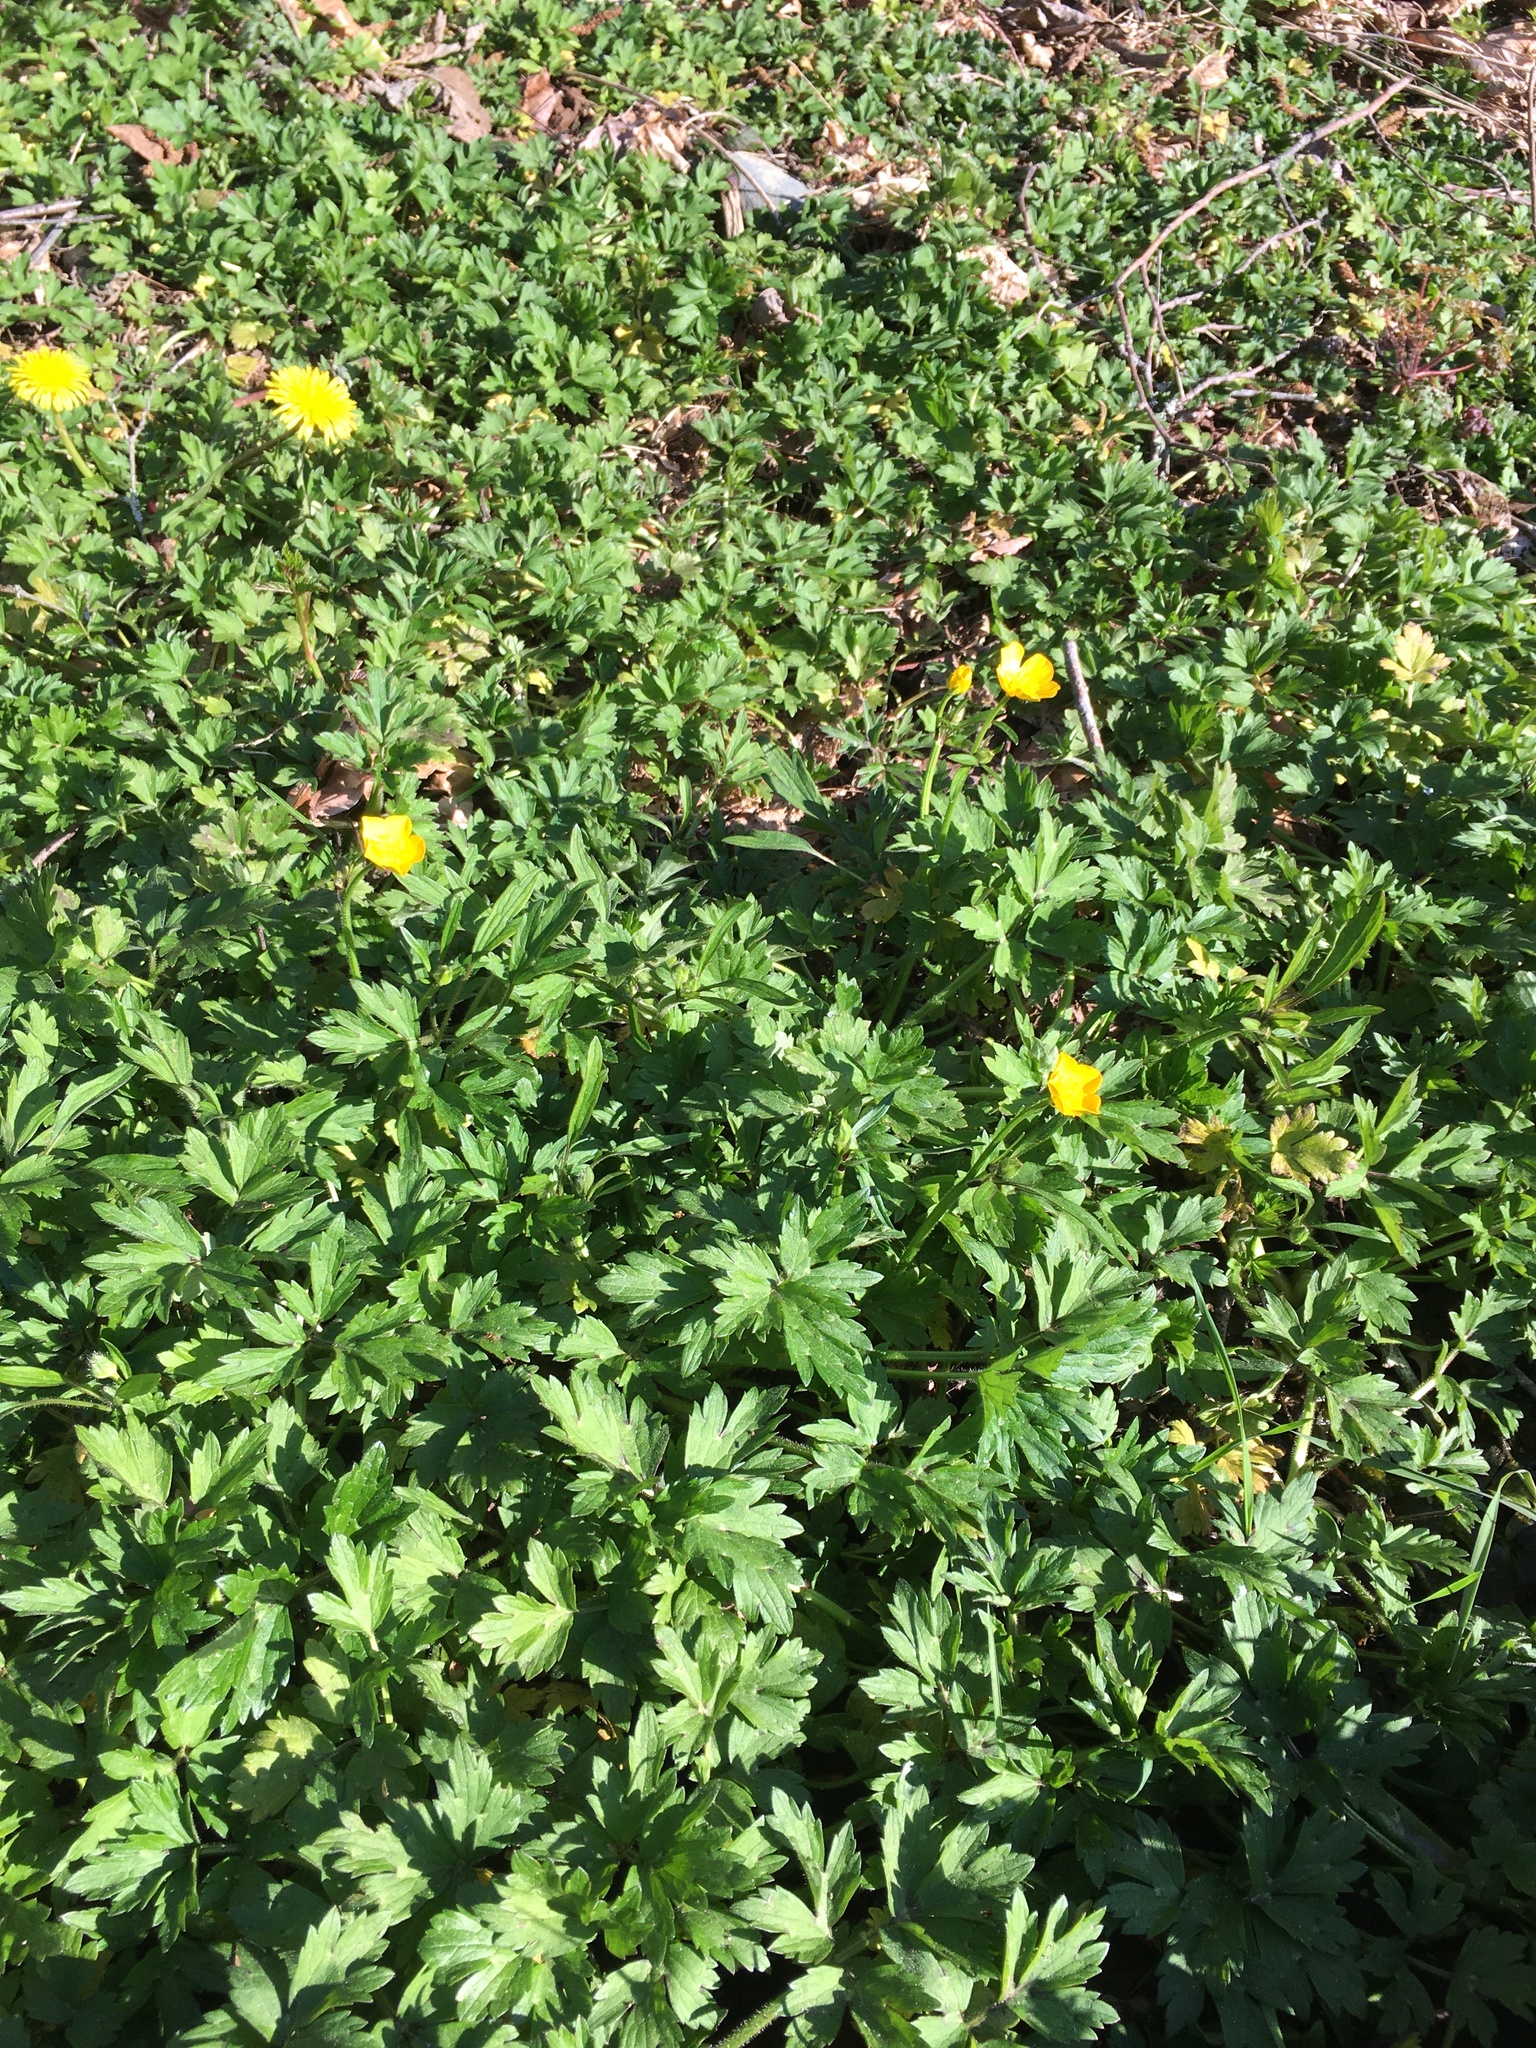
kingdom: Plantae
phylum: Tracheophyta
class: Magnoliopsida
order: Ranunculales
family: Ranunculaceae
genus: Ranunculus
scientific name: Ranunculus repens
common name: Creeping buttercup
